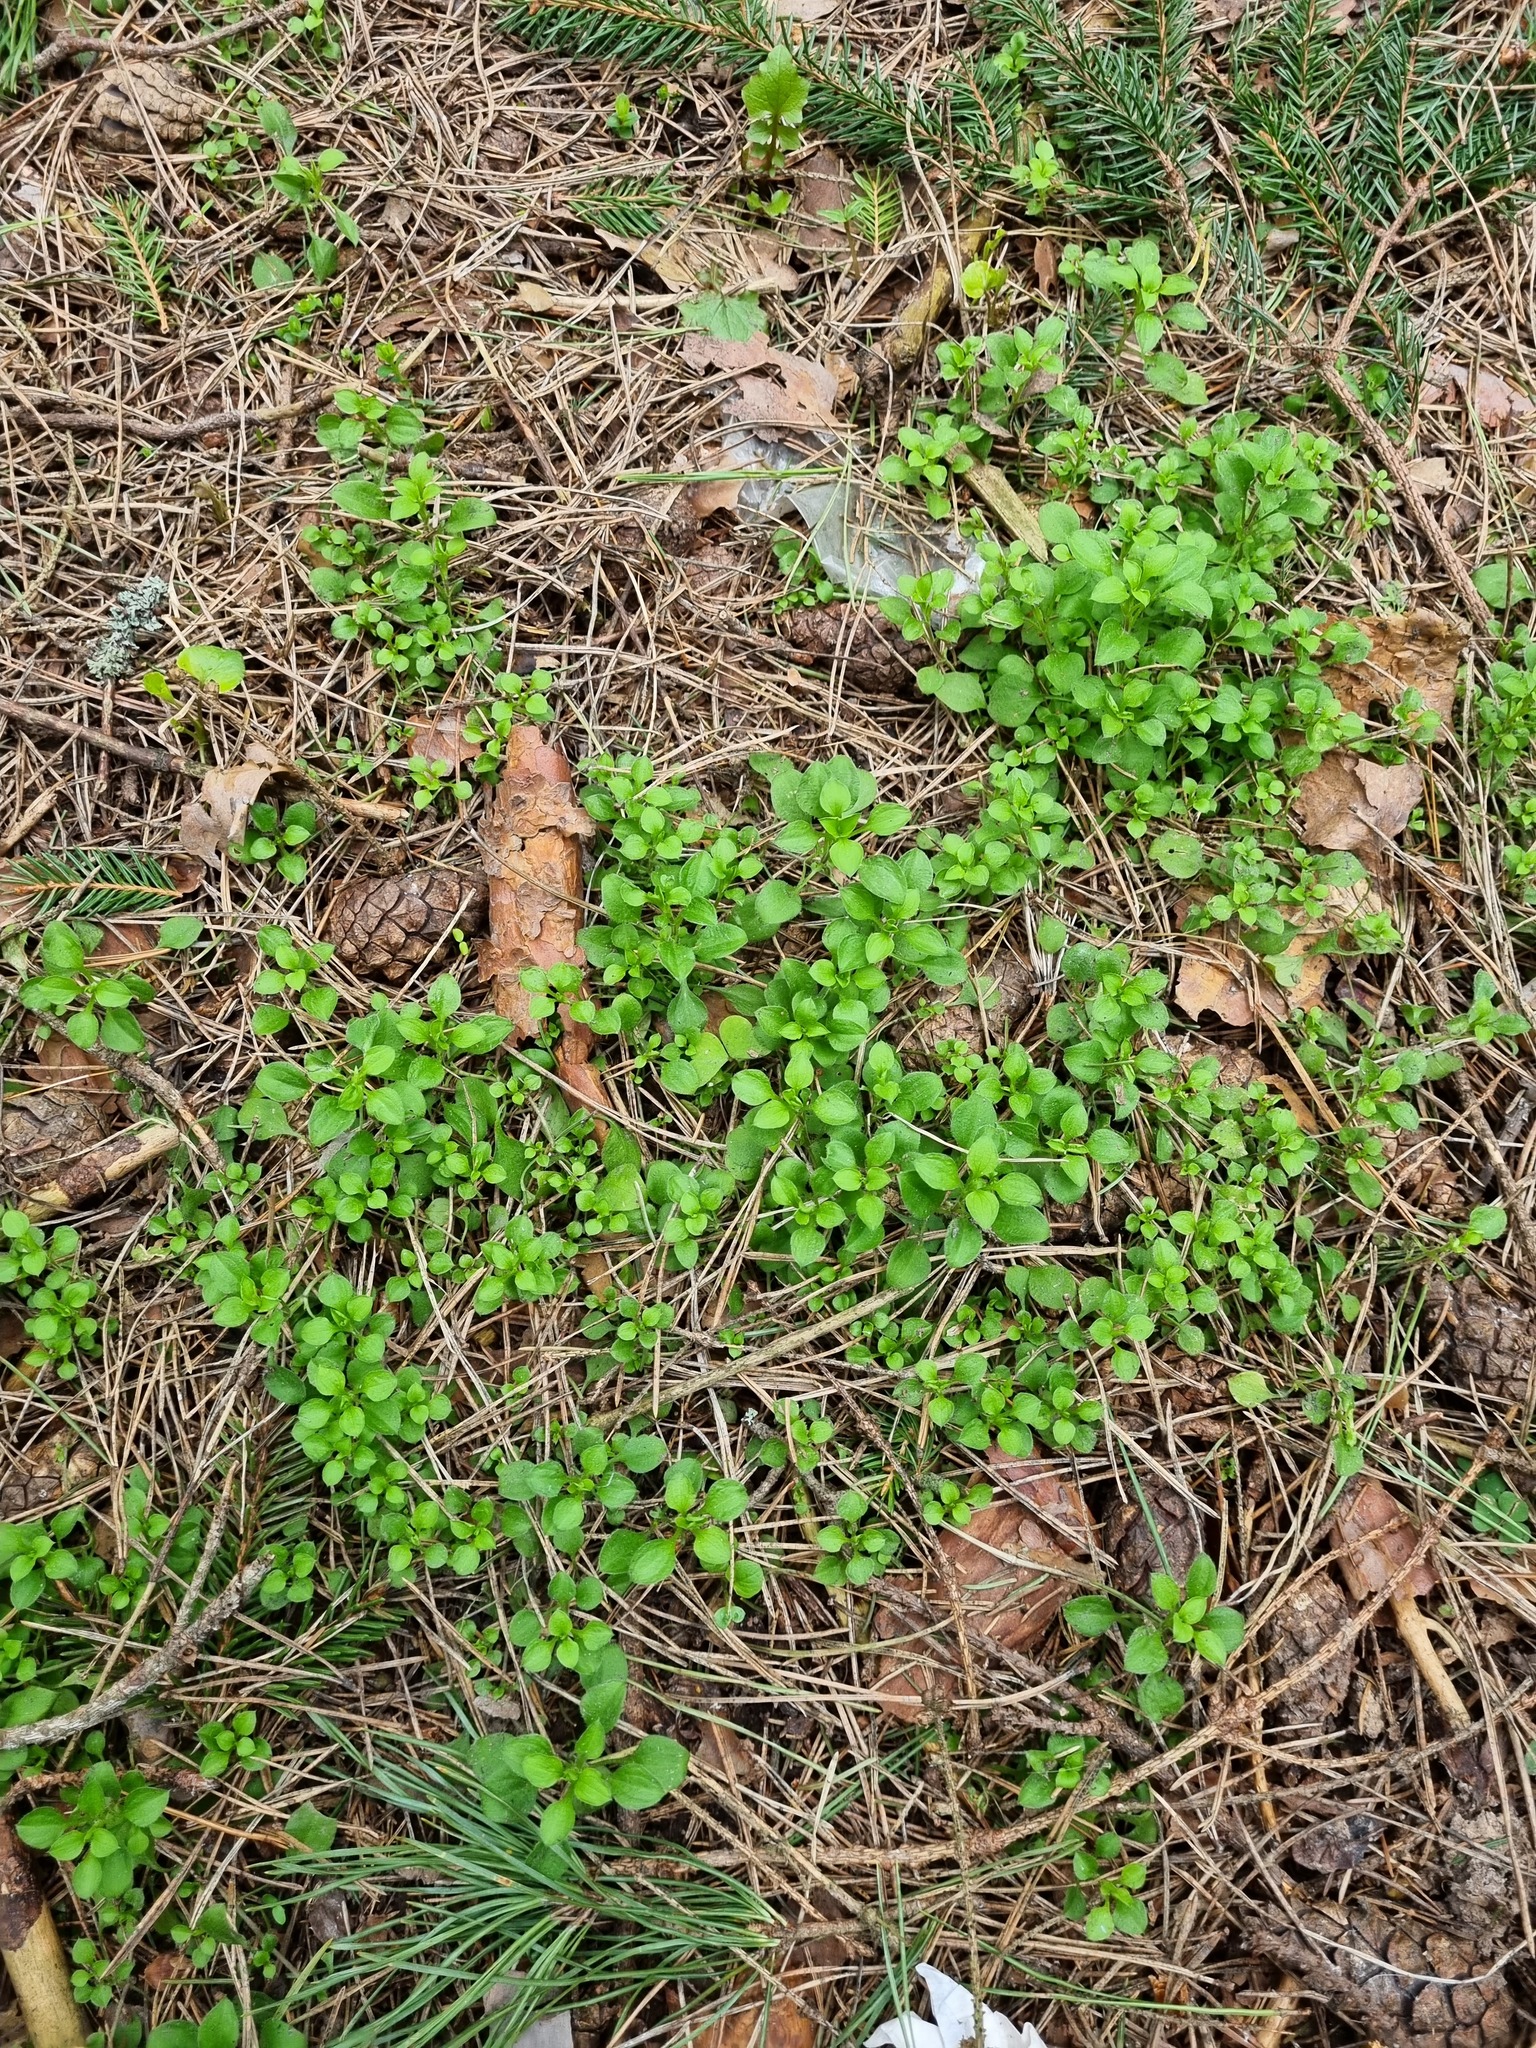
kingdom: Plantae
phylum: Tracheophyta
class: Magnoliopsida
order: Caryophyllales
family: Caryophyllaceae
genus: Moehringia
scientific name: Moehringia trinervia
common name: Three-nerved sandwort
